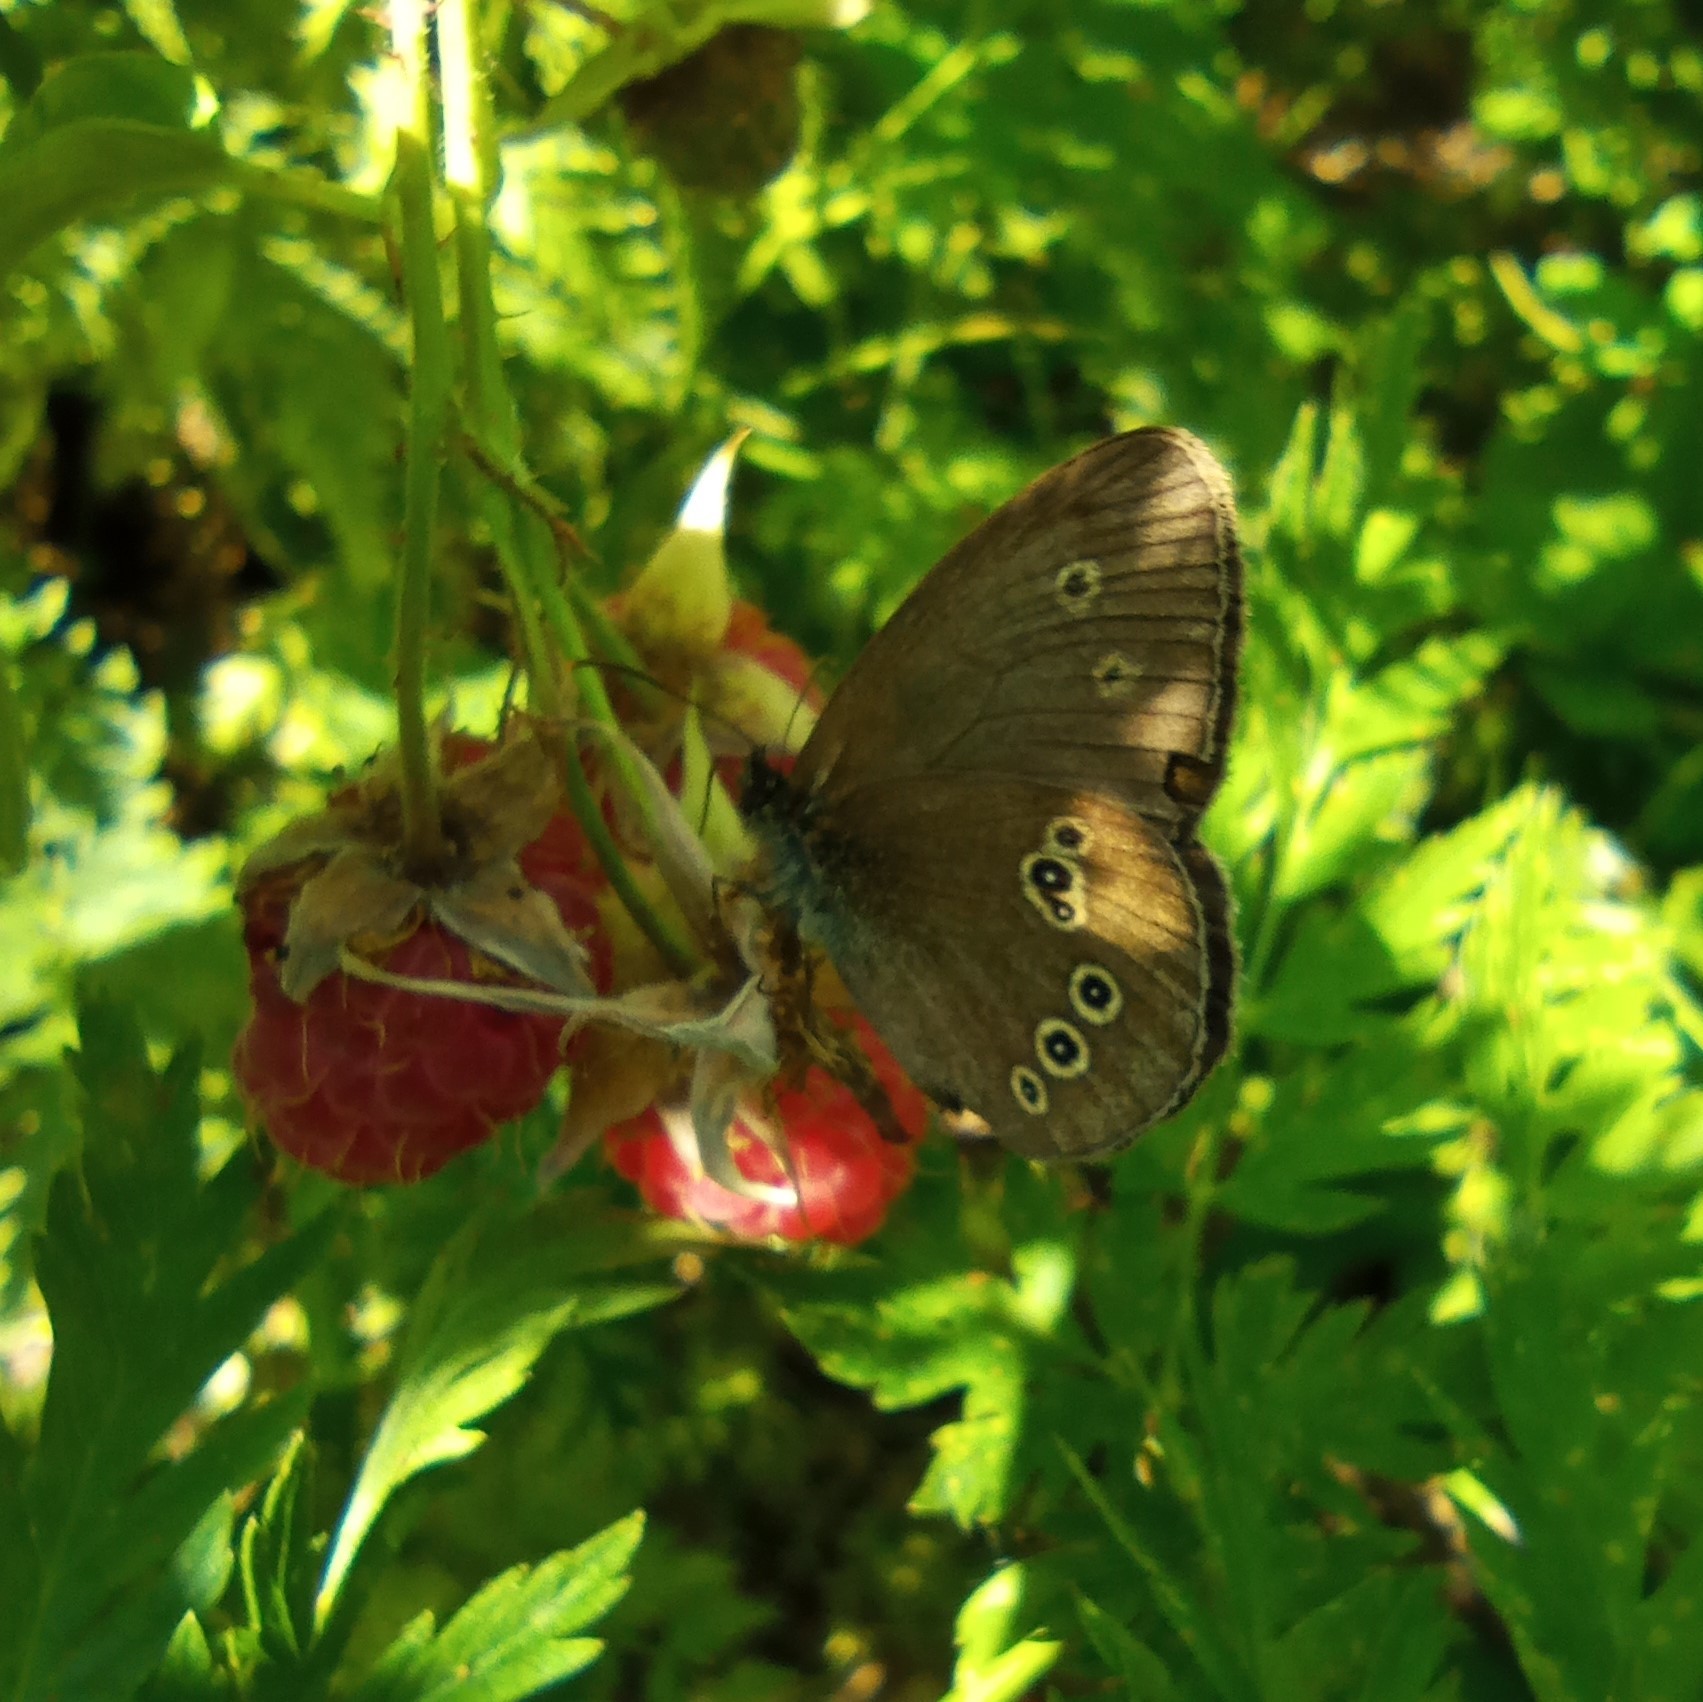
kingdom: Animalia
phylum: Arthropoda
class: Insecta
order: Lepidoptera
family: Nymphalidae
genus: Aphantopus
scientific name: Aphantopus hyperantus
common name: Ringlet
